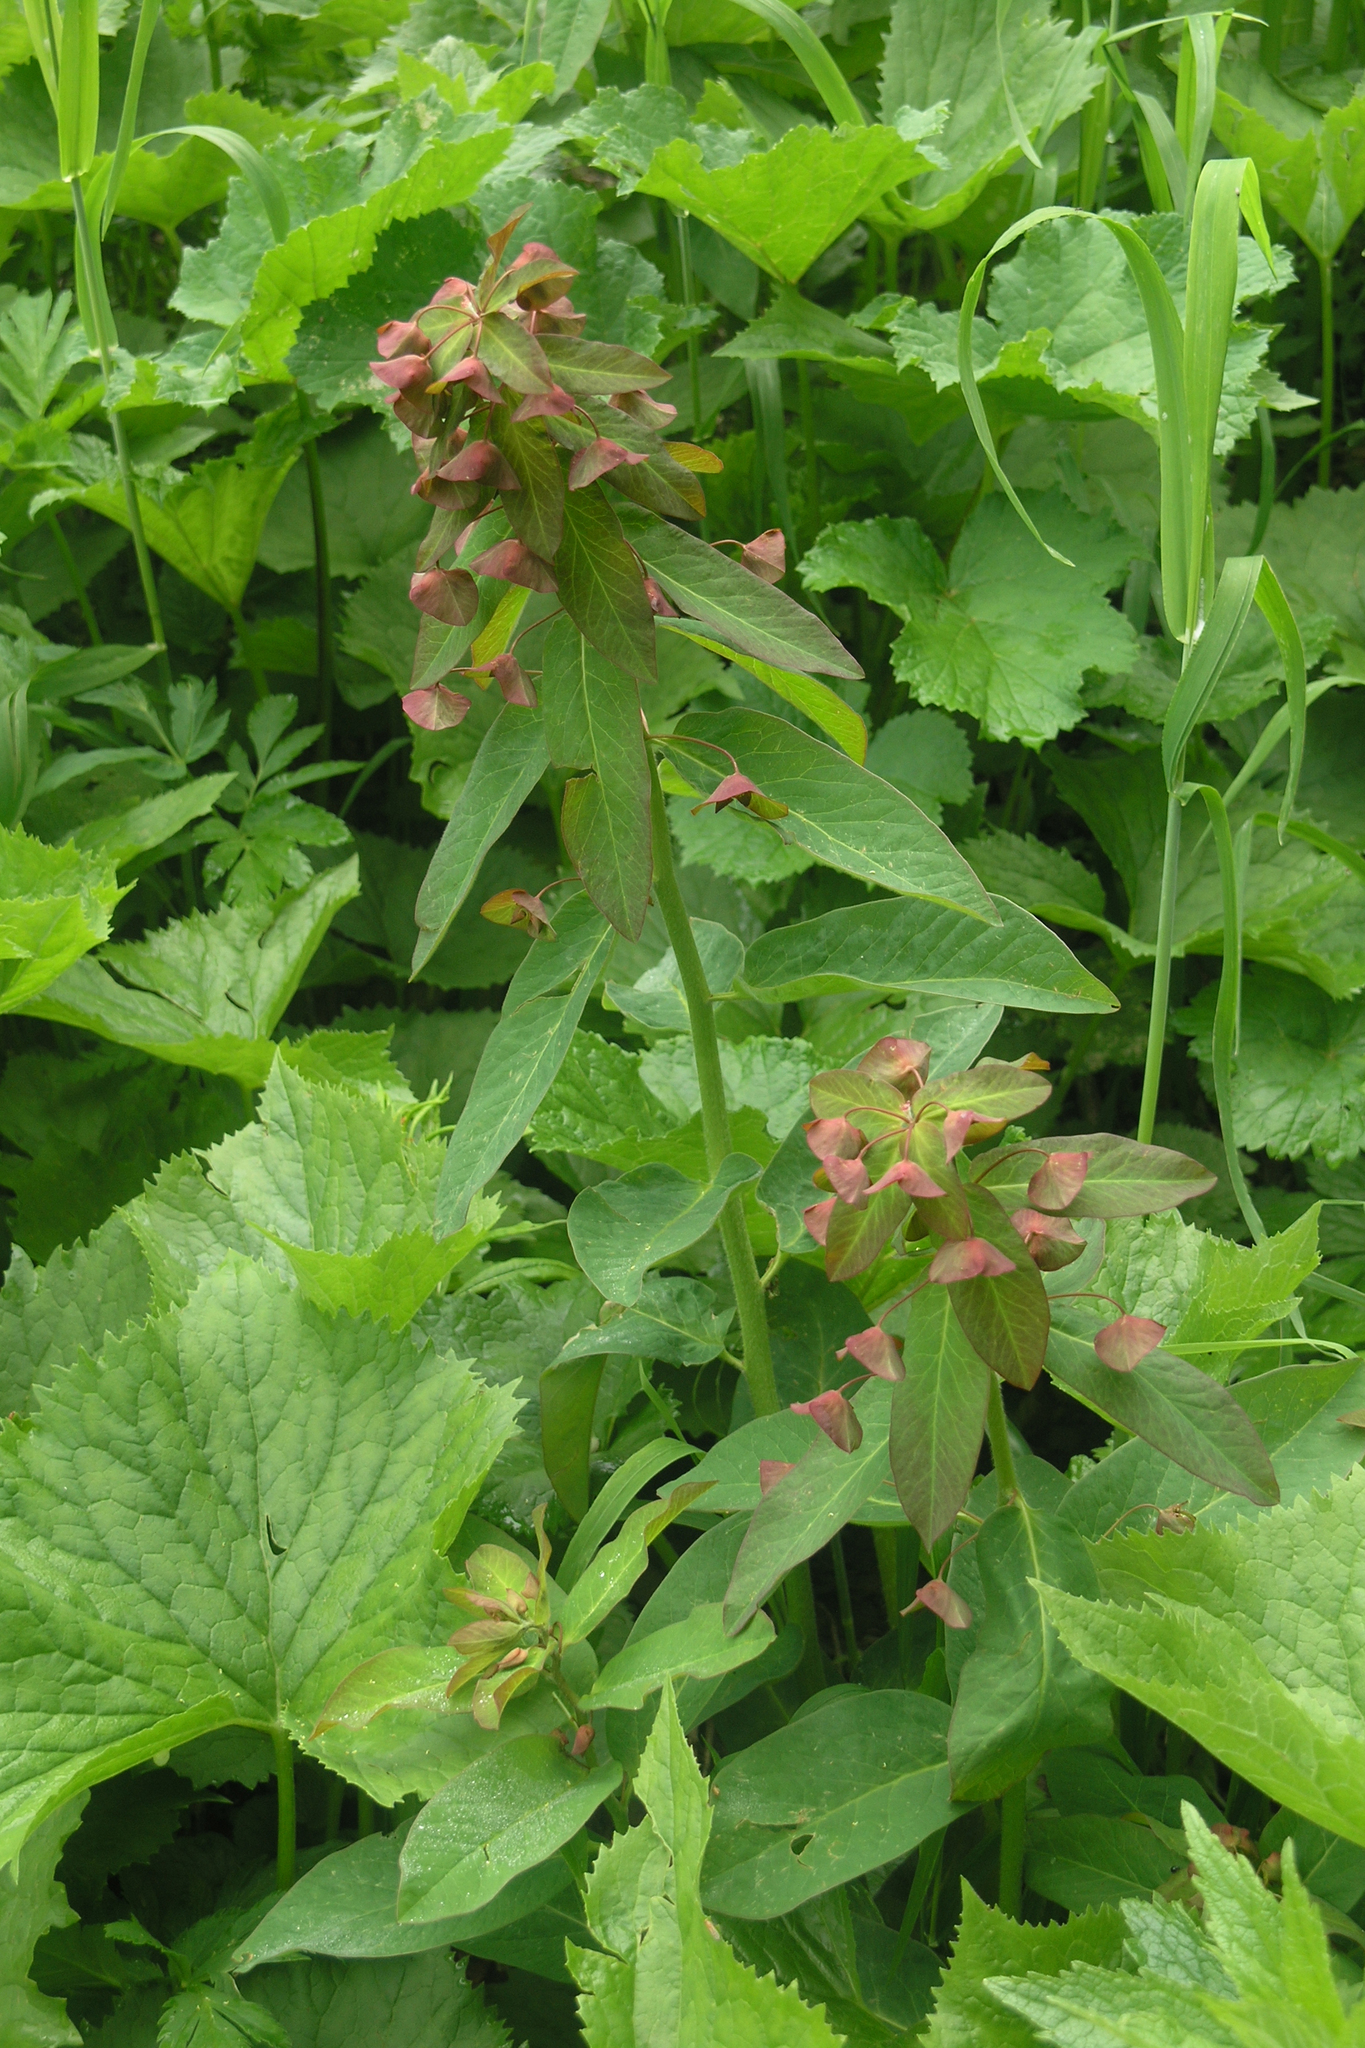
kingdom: Plantae
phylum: Tracheophyta
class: Magnoliopsida
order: Malpighiales
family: Euphorbiaceae
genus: Euphorbia
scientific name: Euphorbia oblongifolia
